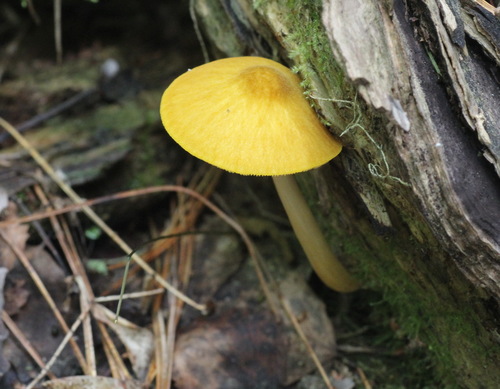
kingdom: Fungi
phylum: Basidiomycota
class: Agaricomycetes
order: Agaricales
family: Pluteaceae
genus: Pluteus
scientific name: Pluteus leoninus
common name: Lion shield
